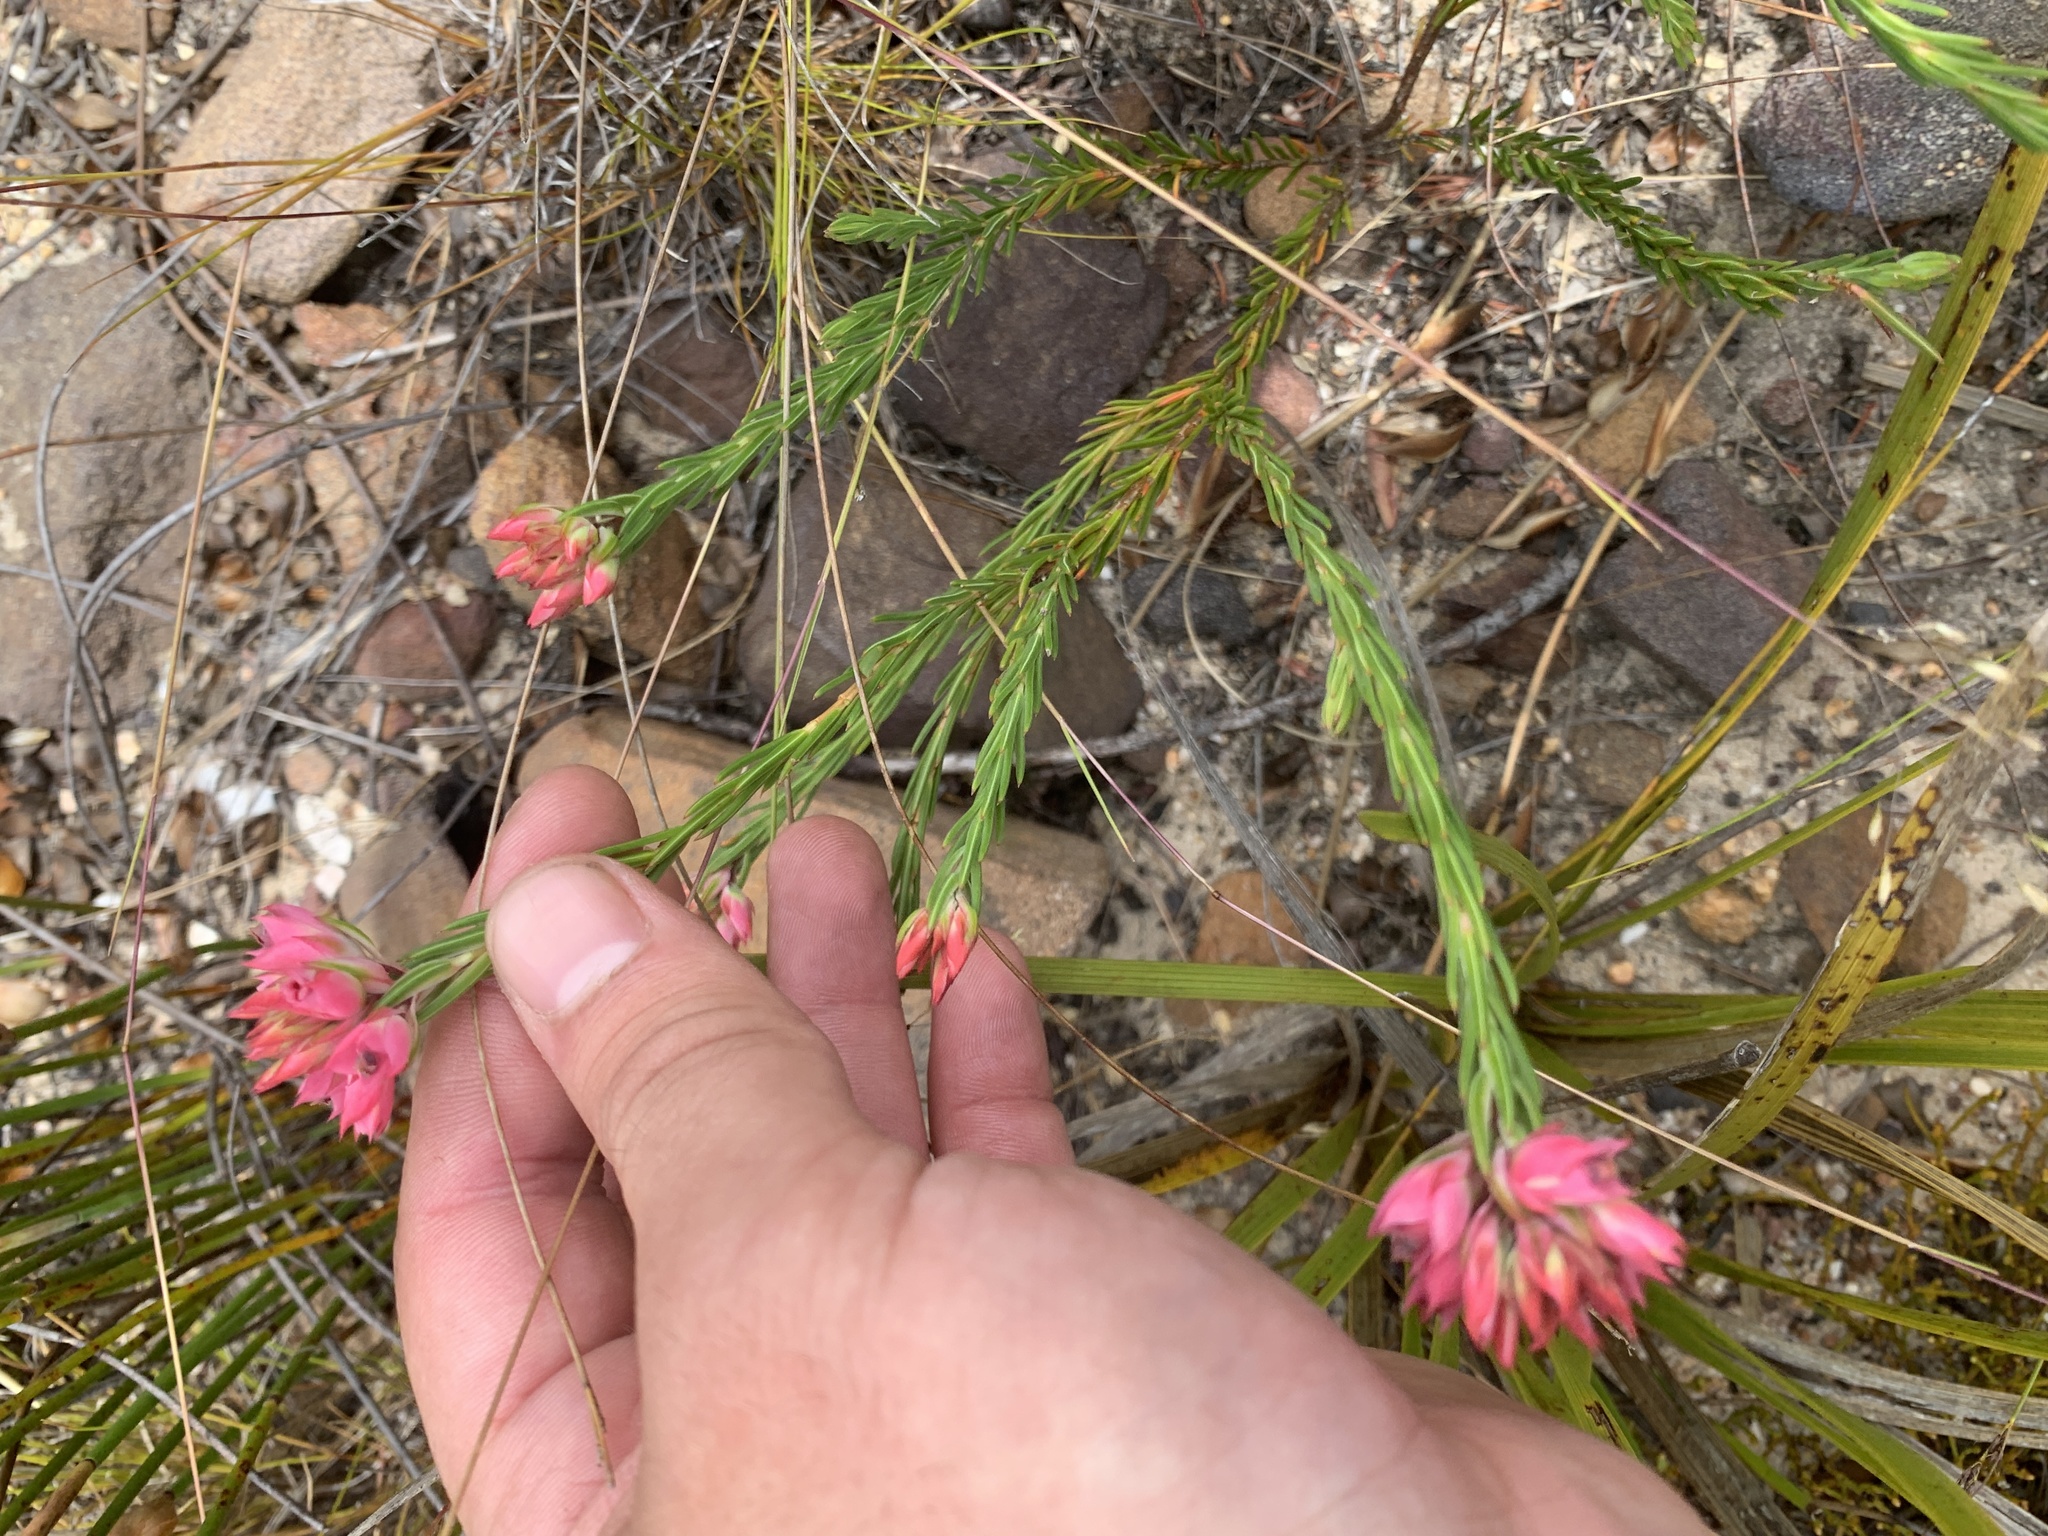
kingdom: Plantae
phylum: Tracheophyta
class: Magnoliopsida
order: Ericales
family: Ericaceae
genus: Erica
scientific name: Erica taxifolia
